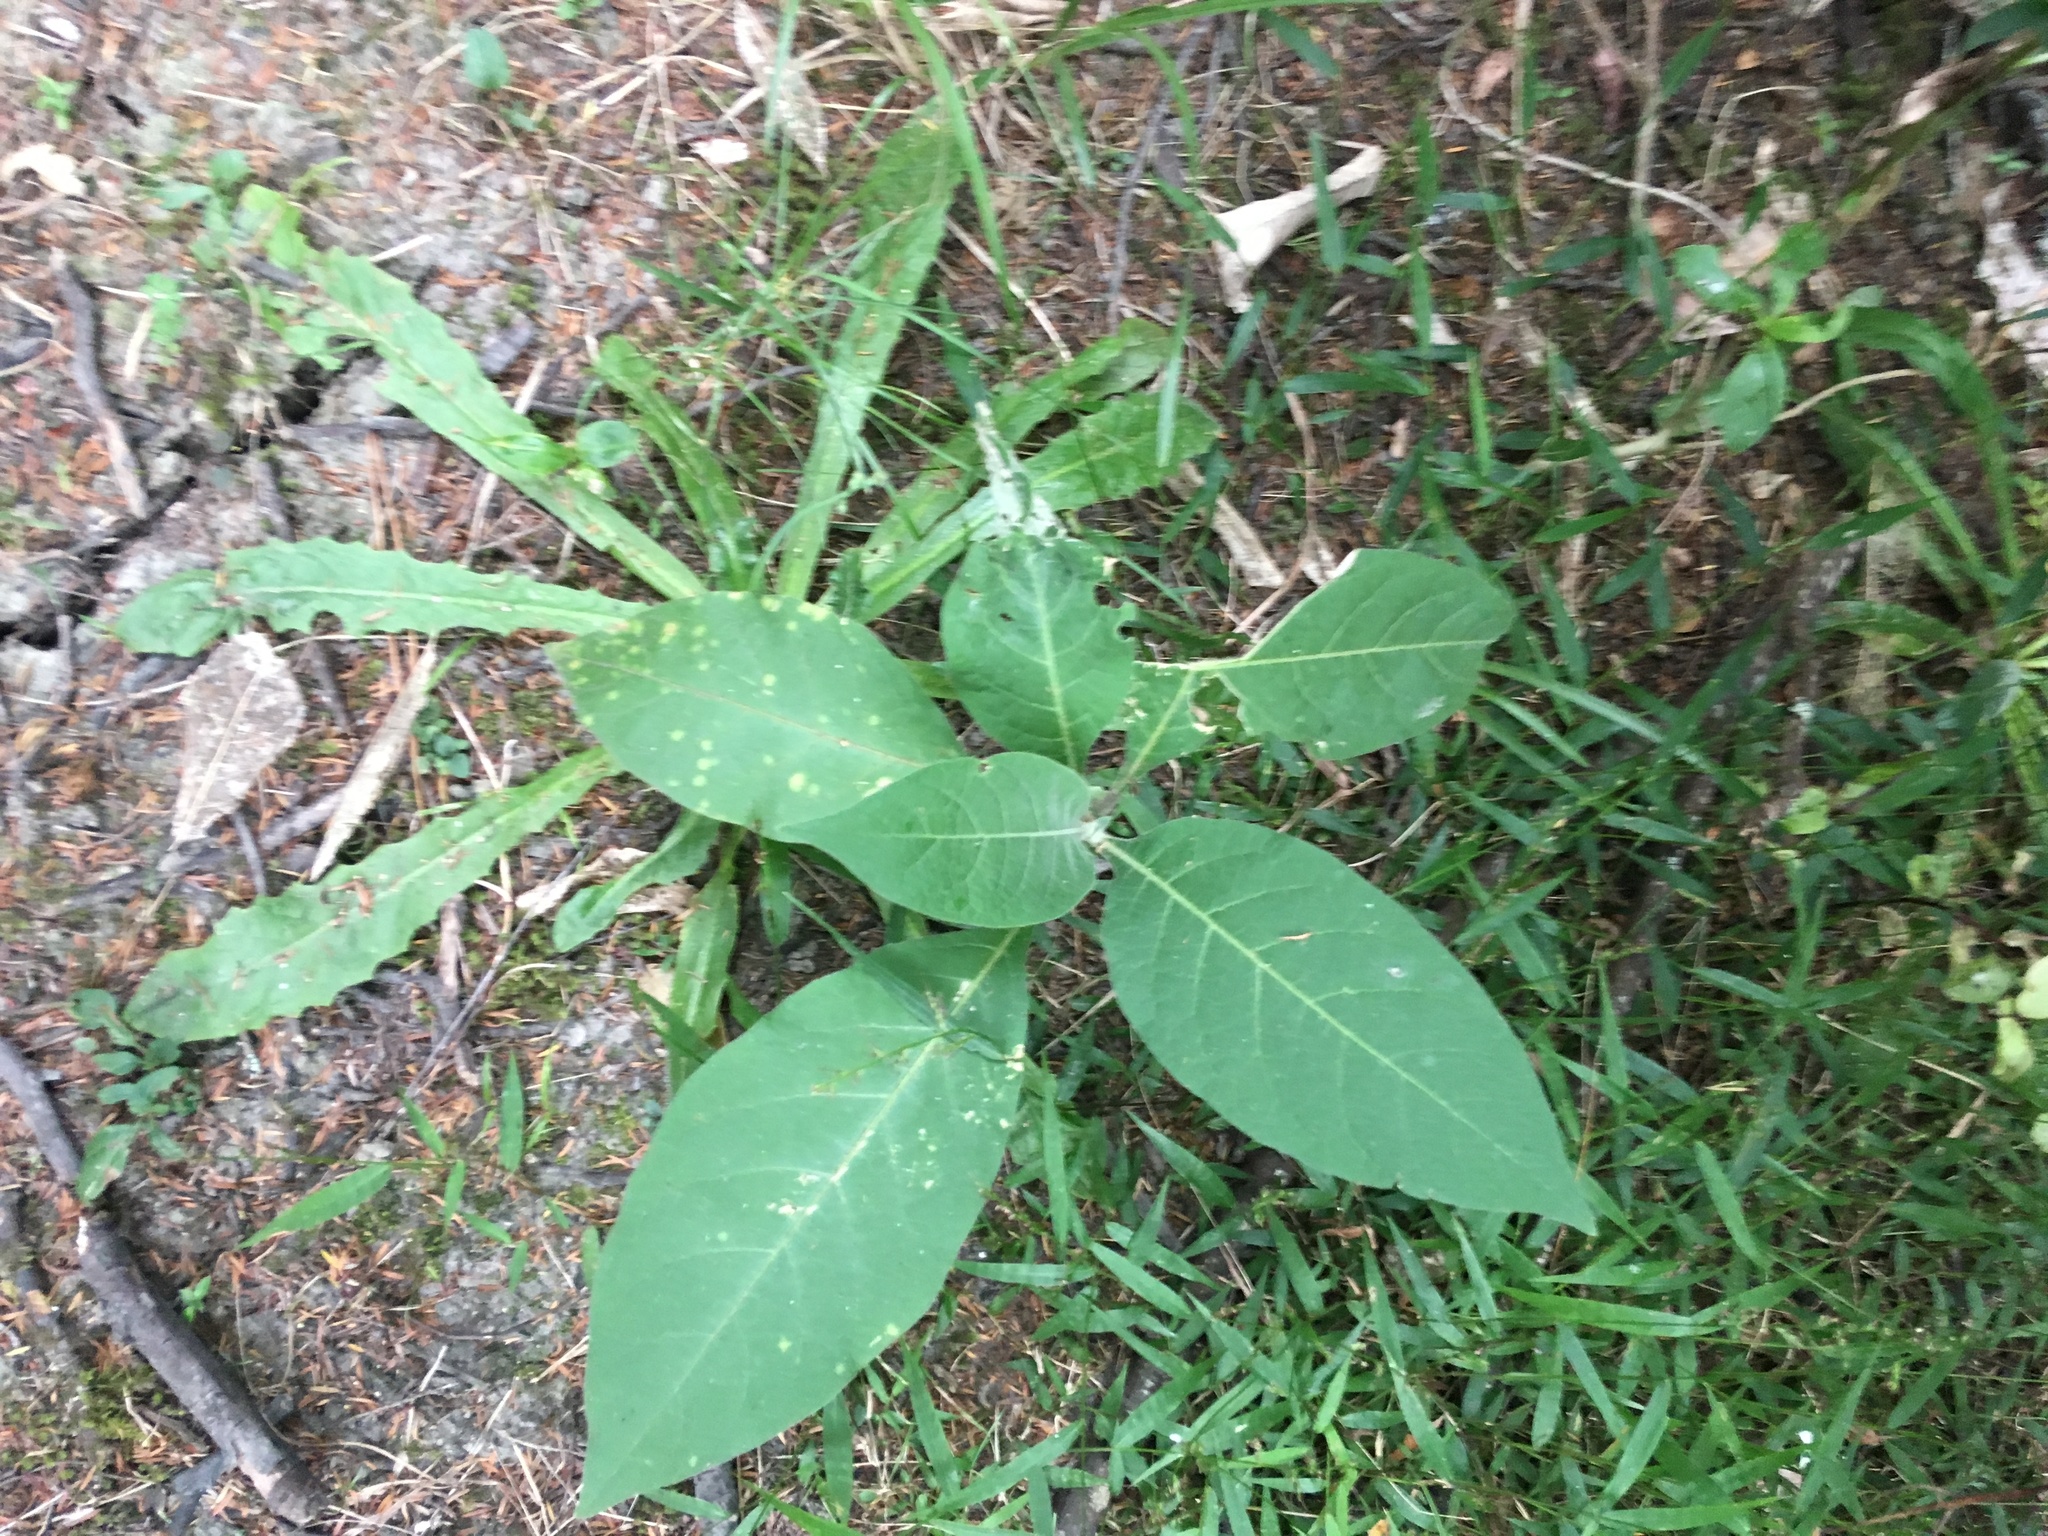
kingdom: Plantae
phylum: Tracheophyta
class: Magnoliopsida
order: Solanales
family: Solanaceae
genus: Solanum
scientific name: Solanum mauritianum
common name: Earleaf nightshade
